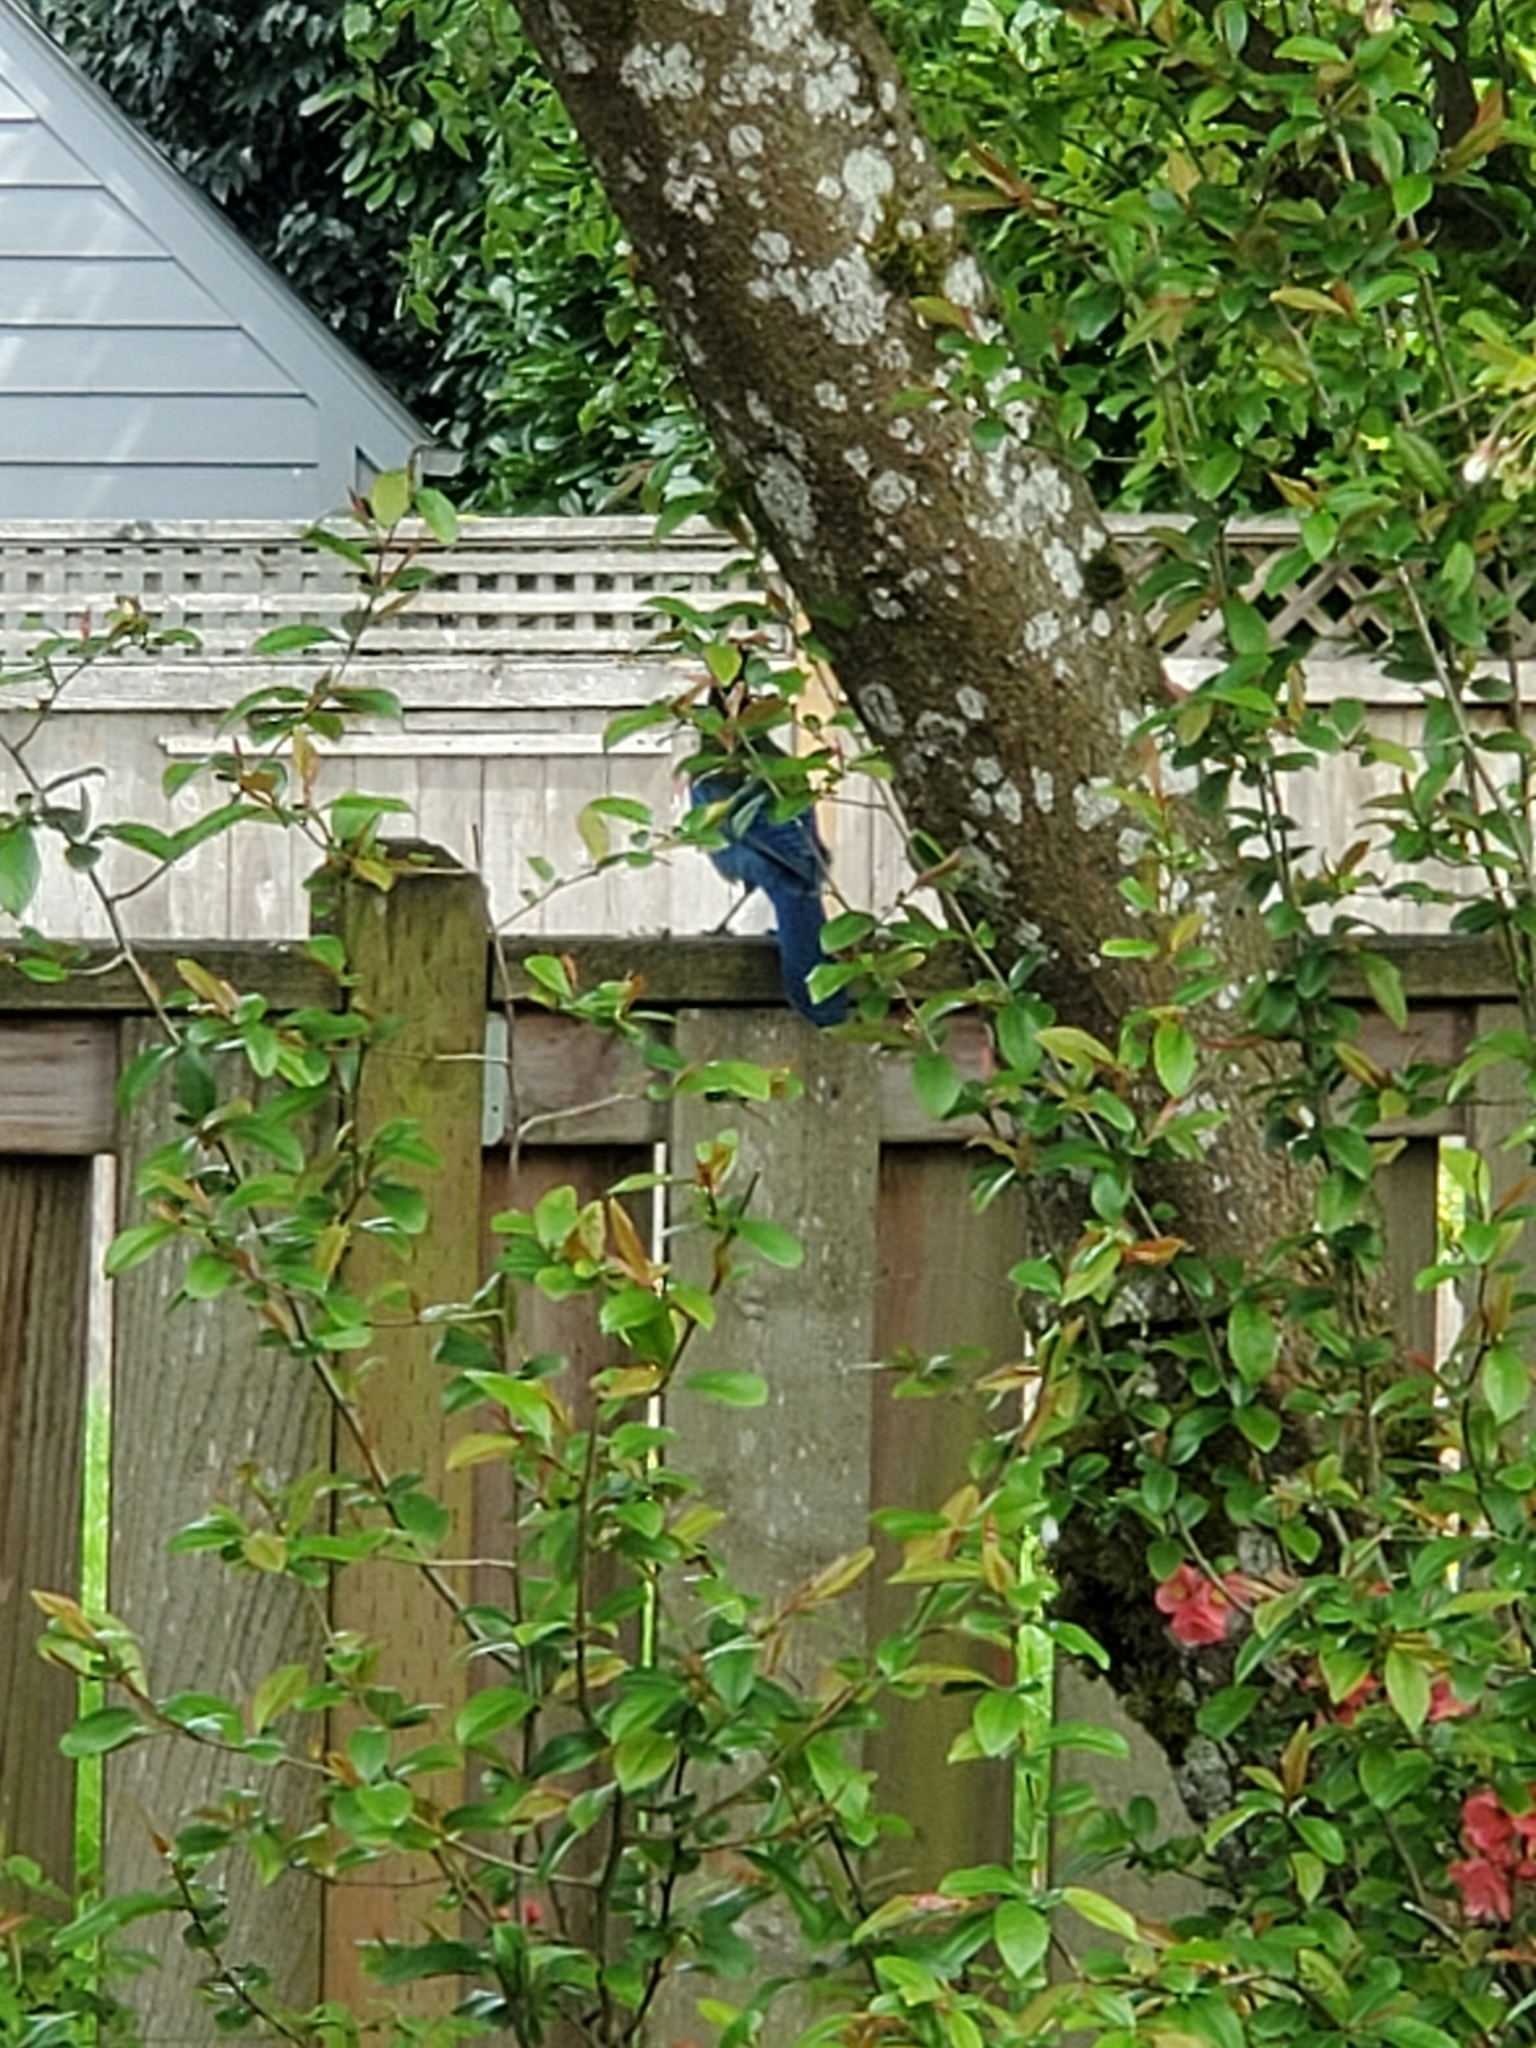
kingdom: Animalia
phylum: Chordata
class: Aves
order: Passeriformes
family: Corvidae
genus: Cyanocitta
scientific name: Cyanocitta stelleri
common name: Steller's jay
